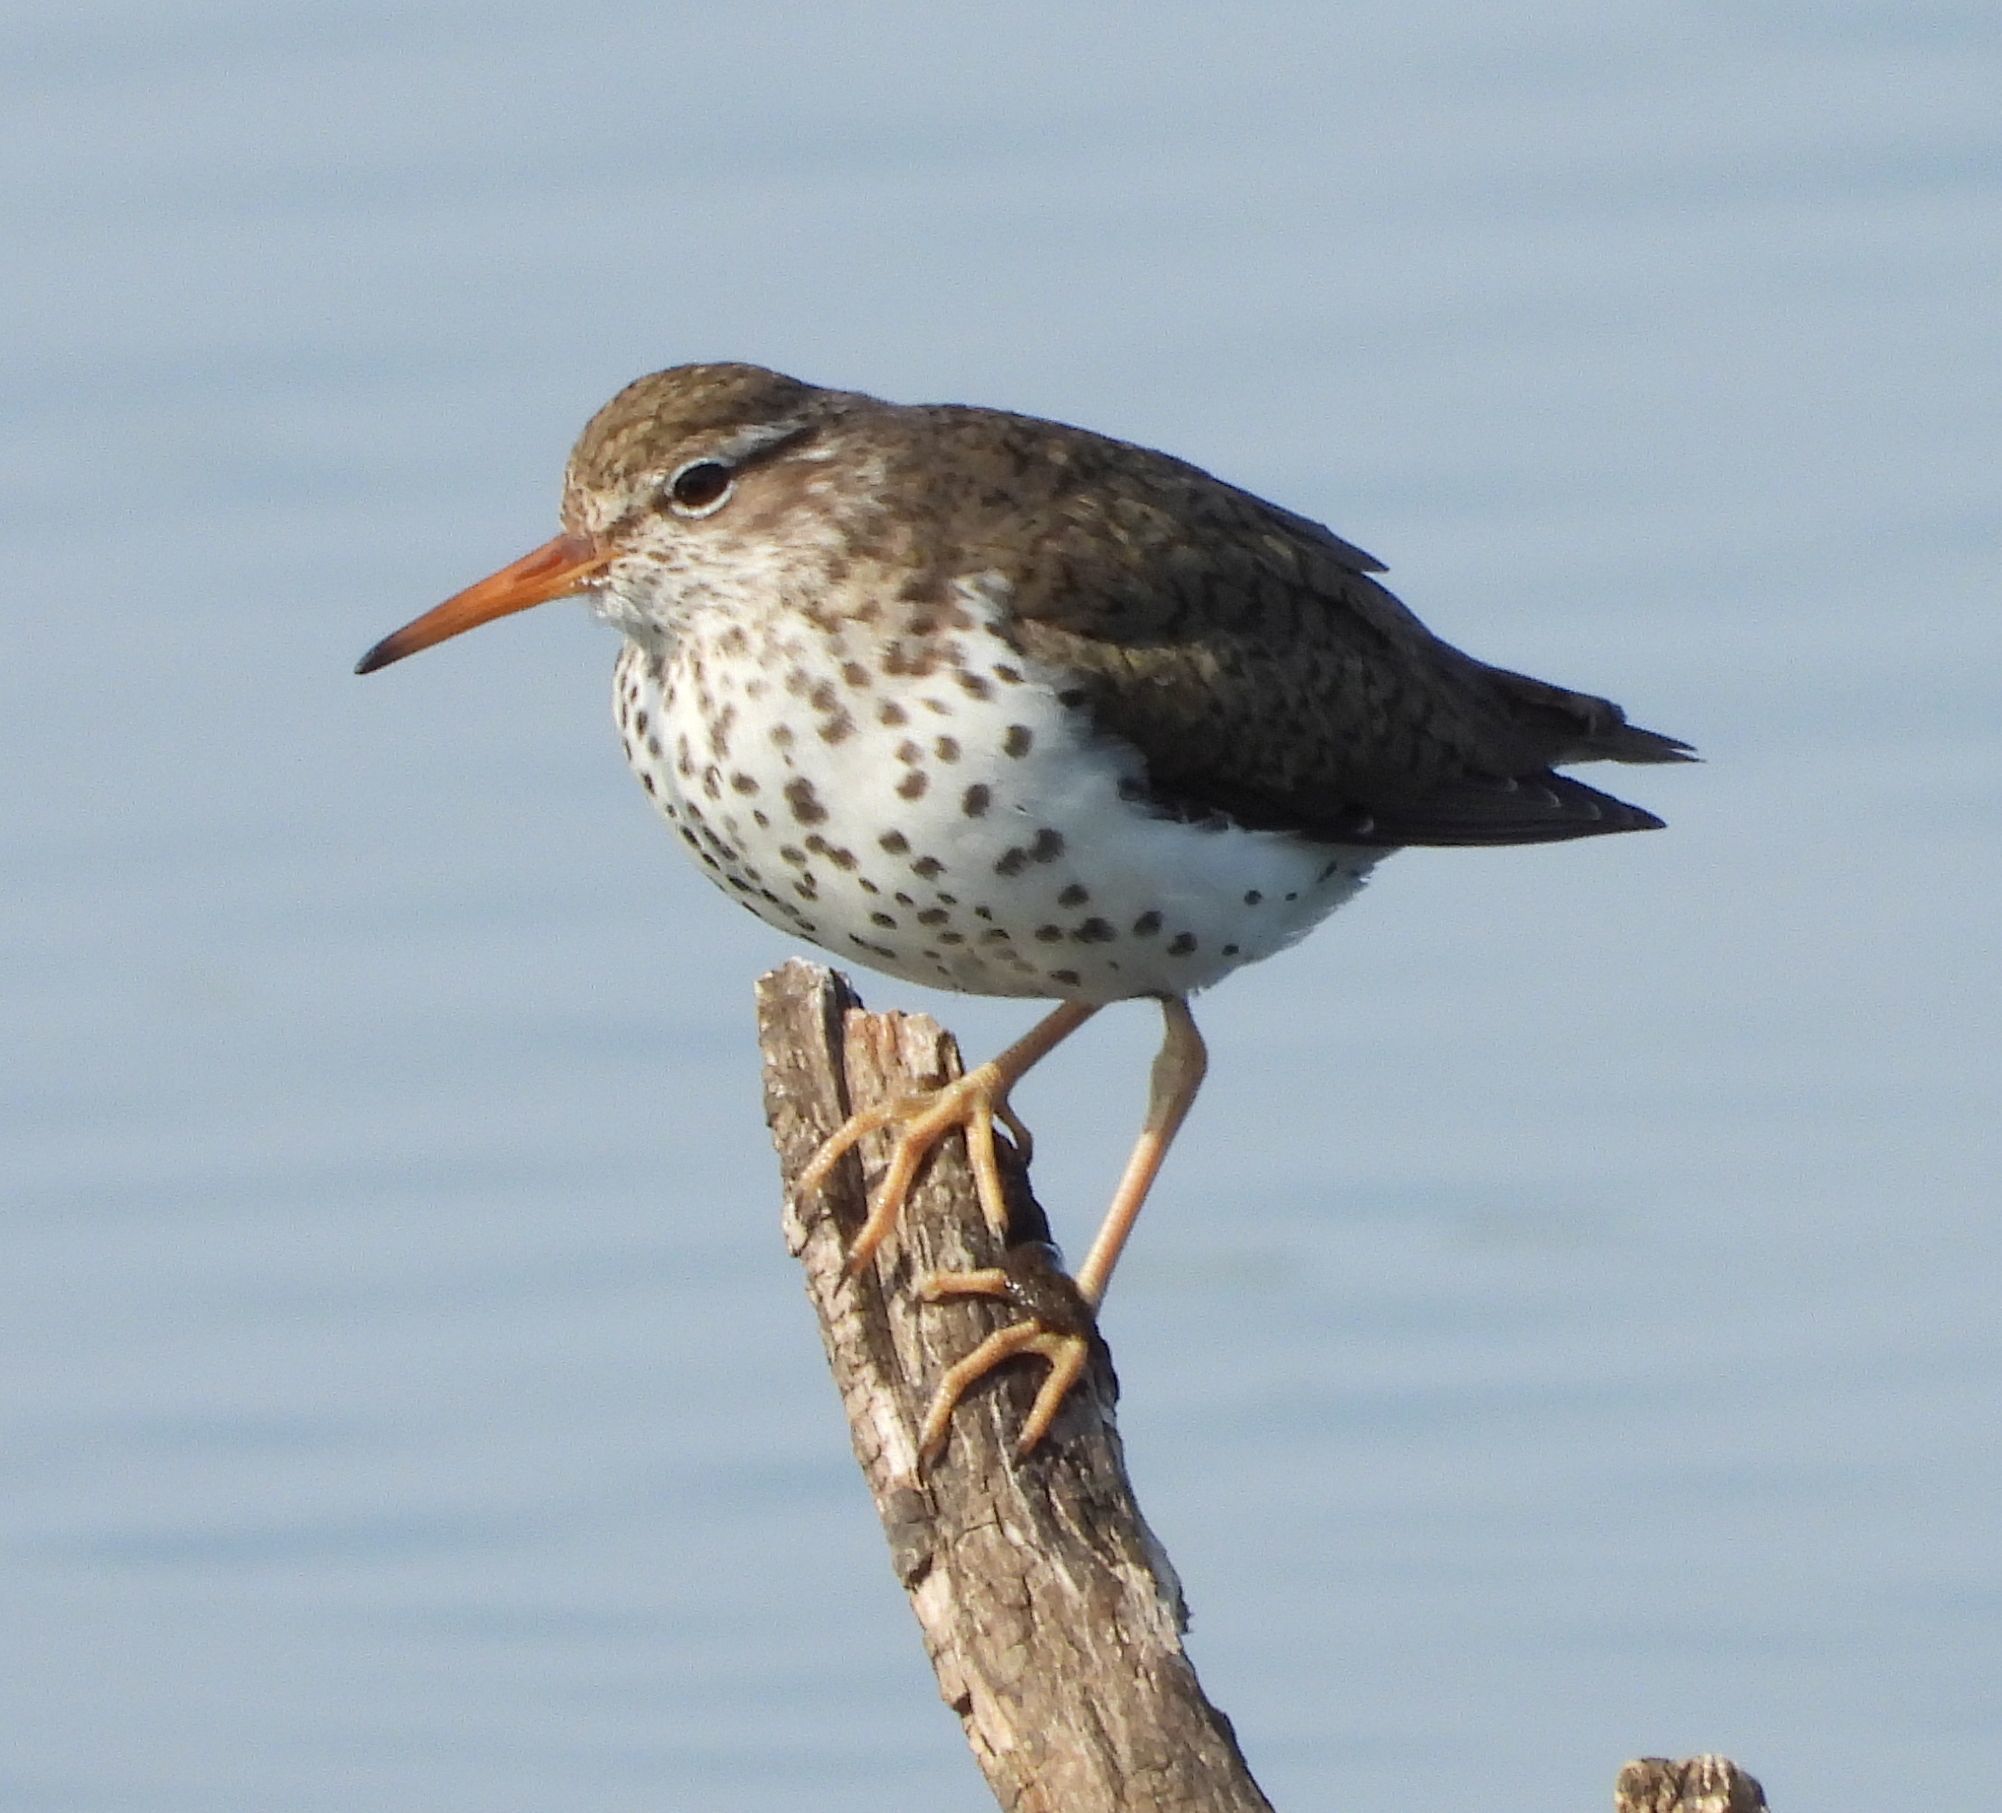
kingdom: Animalia
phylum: Chordata
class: Aves
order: Charadriiformes
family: Scolopacidae
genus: Actitis
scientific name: Actitis macularius
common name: Spotted sandpiper
